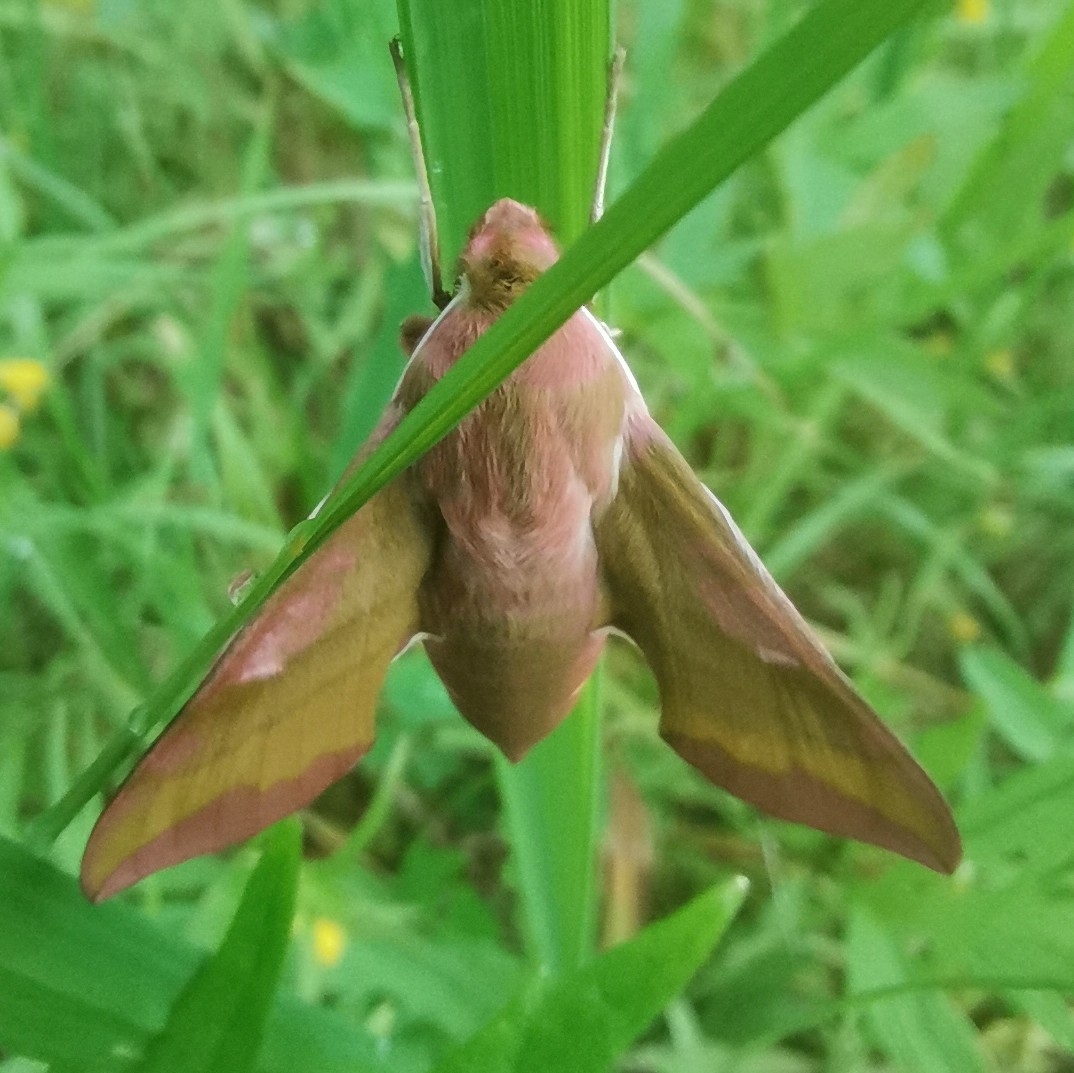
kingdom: Animalia
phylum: Arthropoda
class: Insecta
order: Lepidoptera
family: Sphingidae
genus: Deilephila
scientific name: Deilephila porcellus
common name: Small elephant hawk-moth
